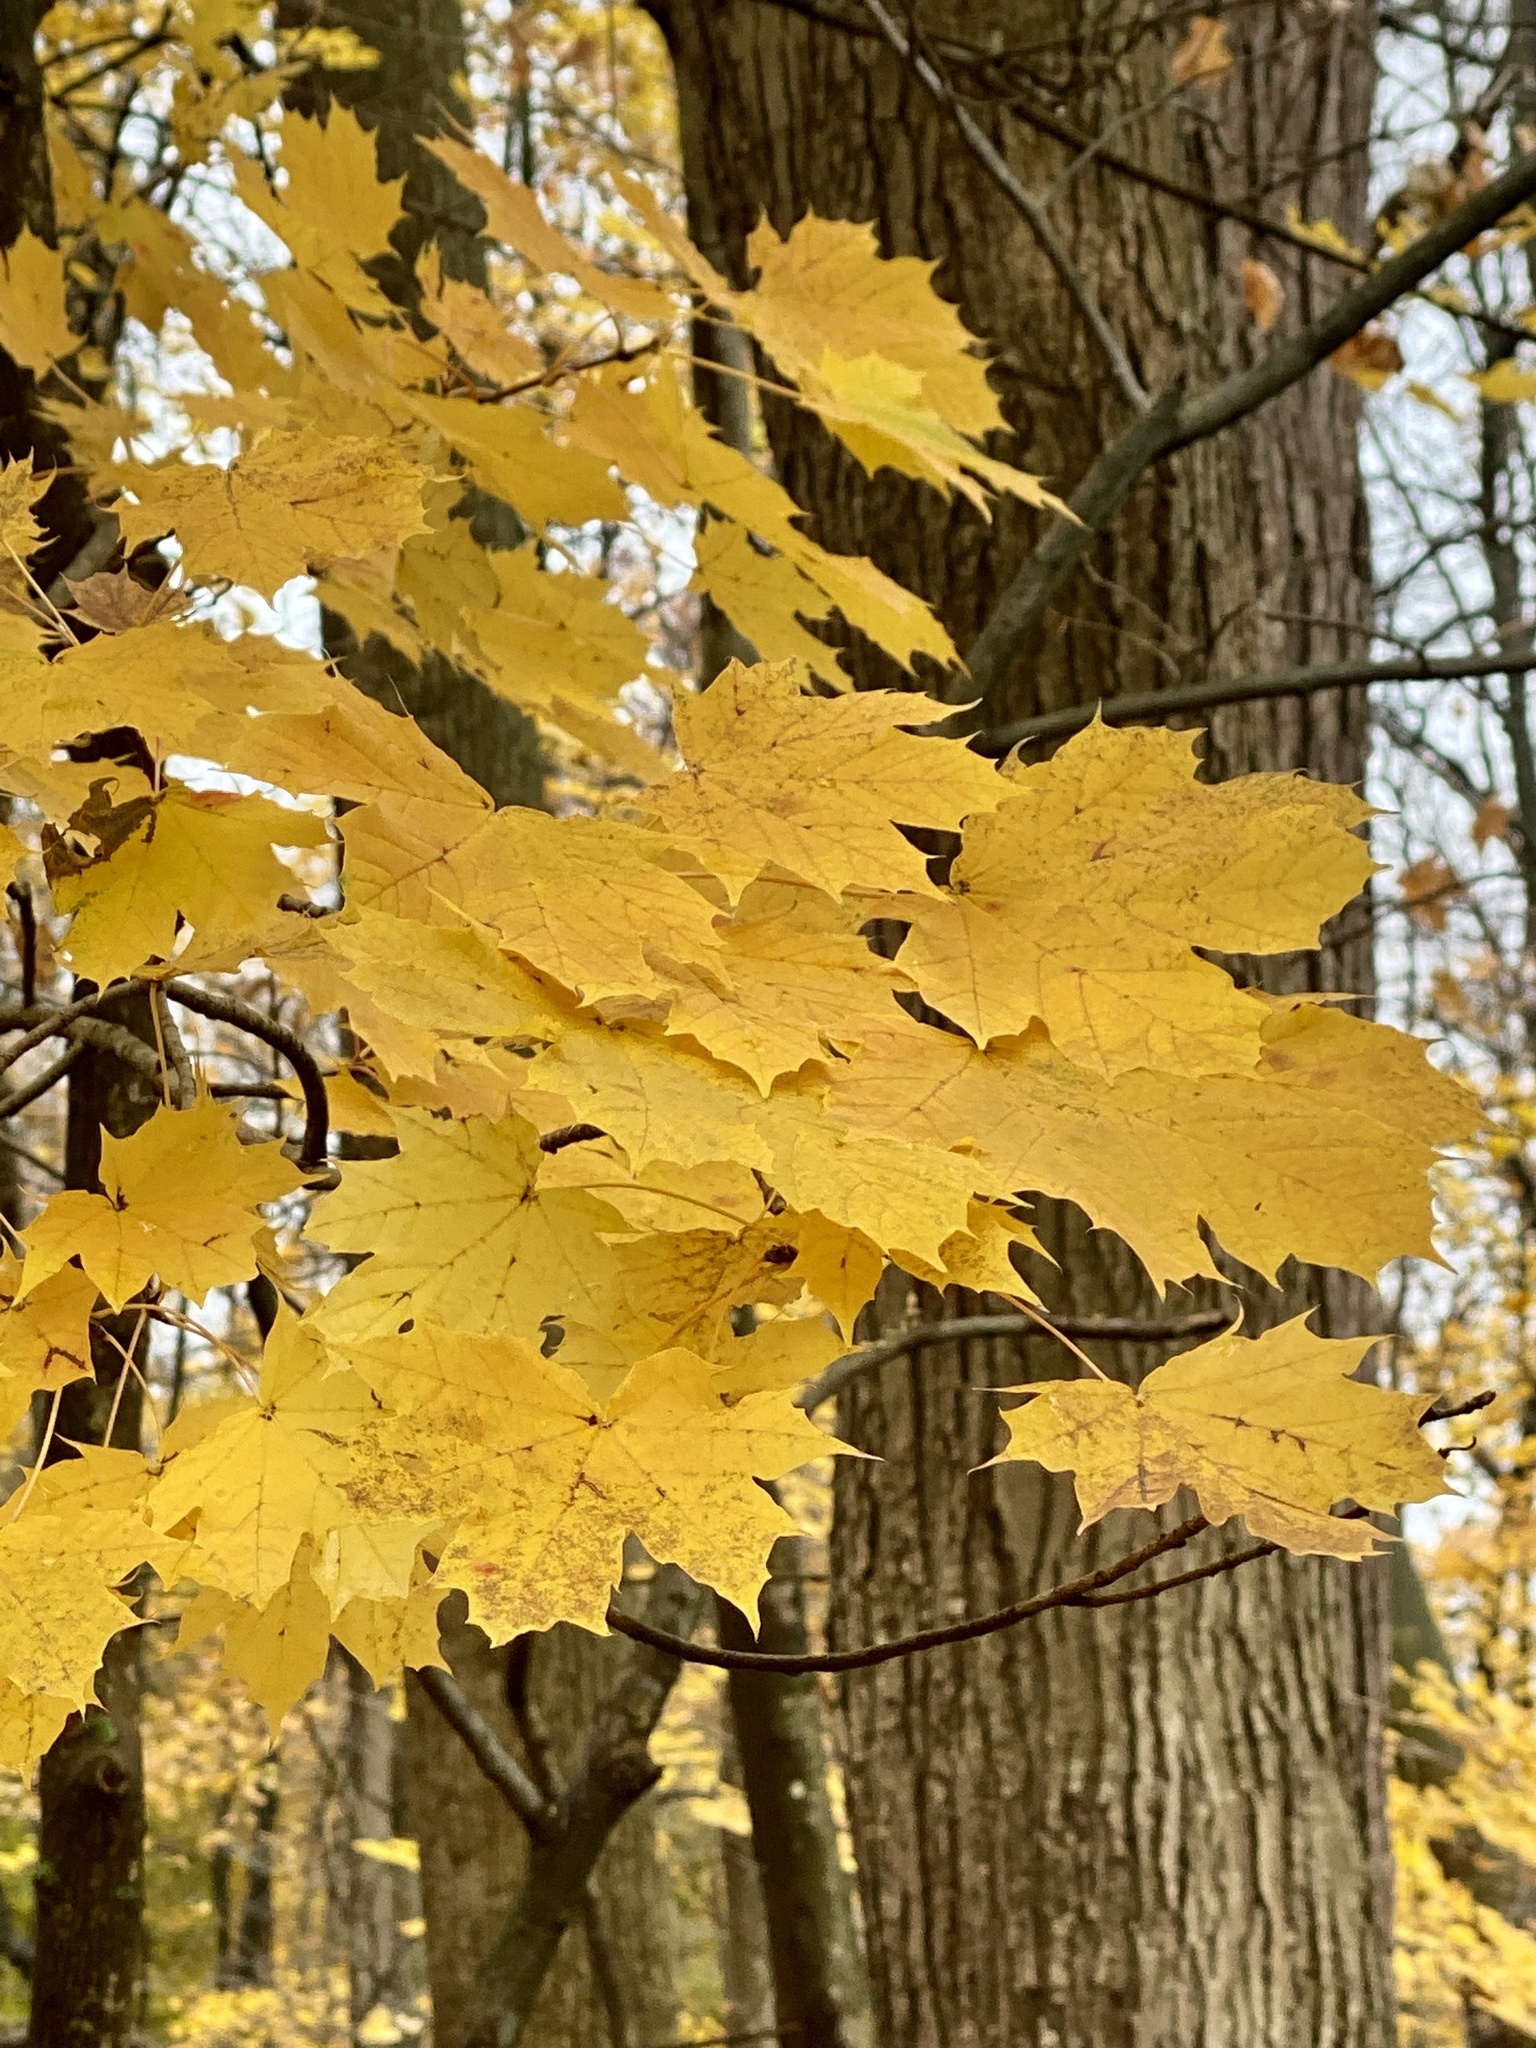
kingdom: Plantae
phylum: Tracheophyta
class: Magnoliopsida
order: Sapindales
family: Sapindaceae
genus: Acer
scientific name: Acer platanoides
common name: Norway maple
